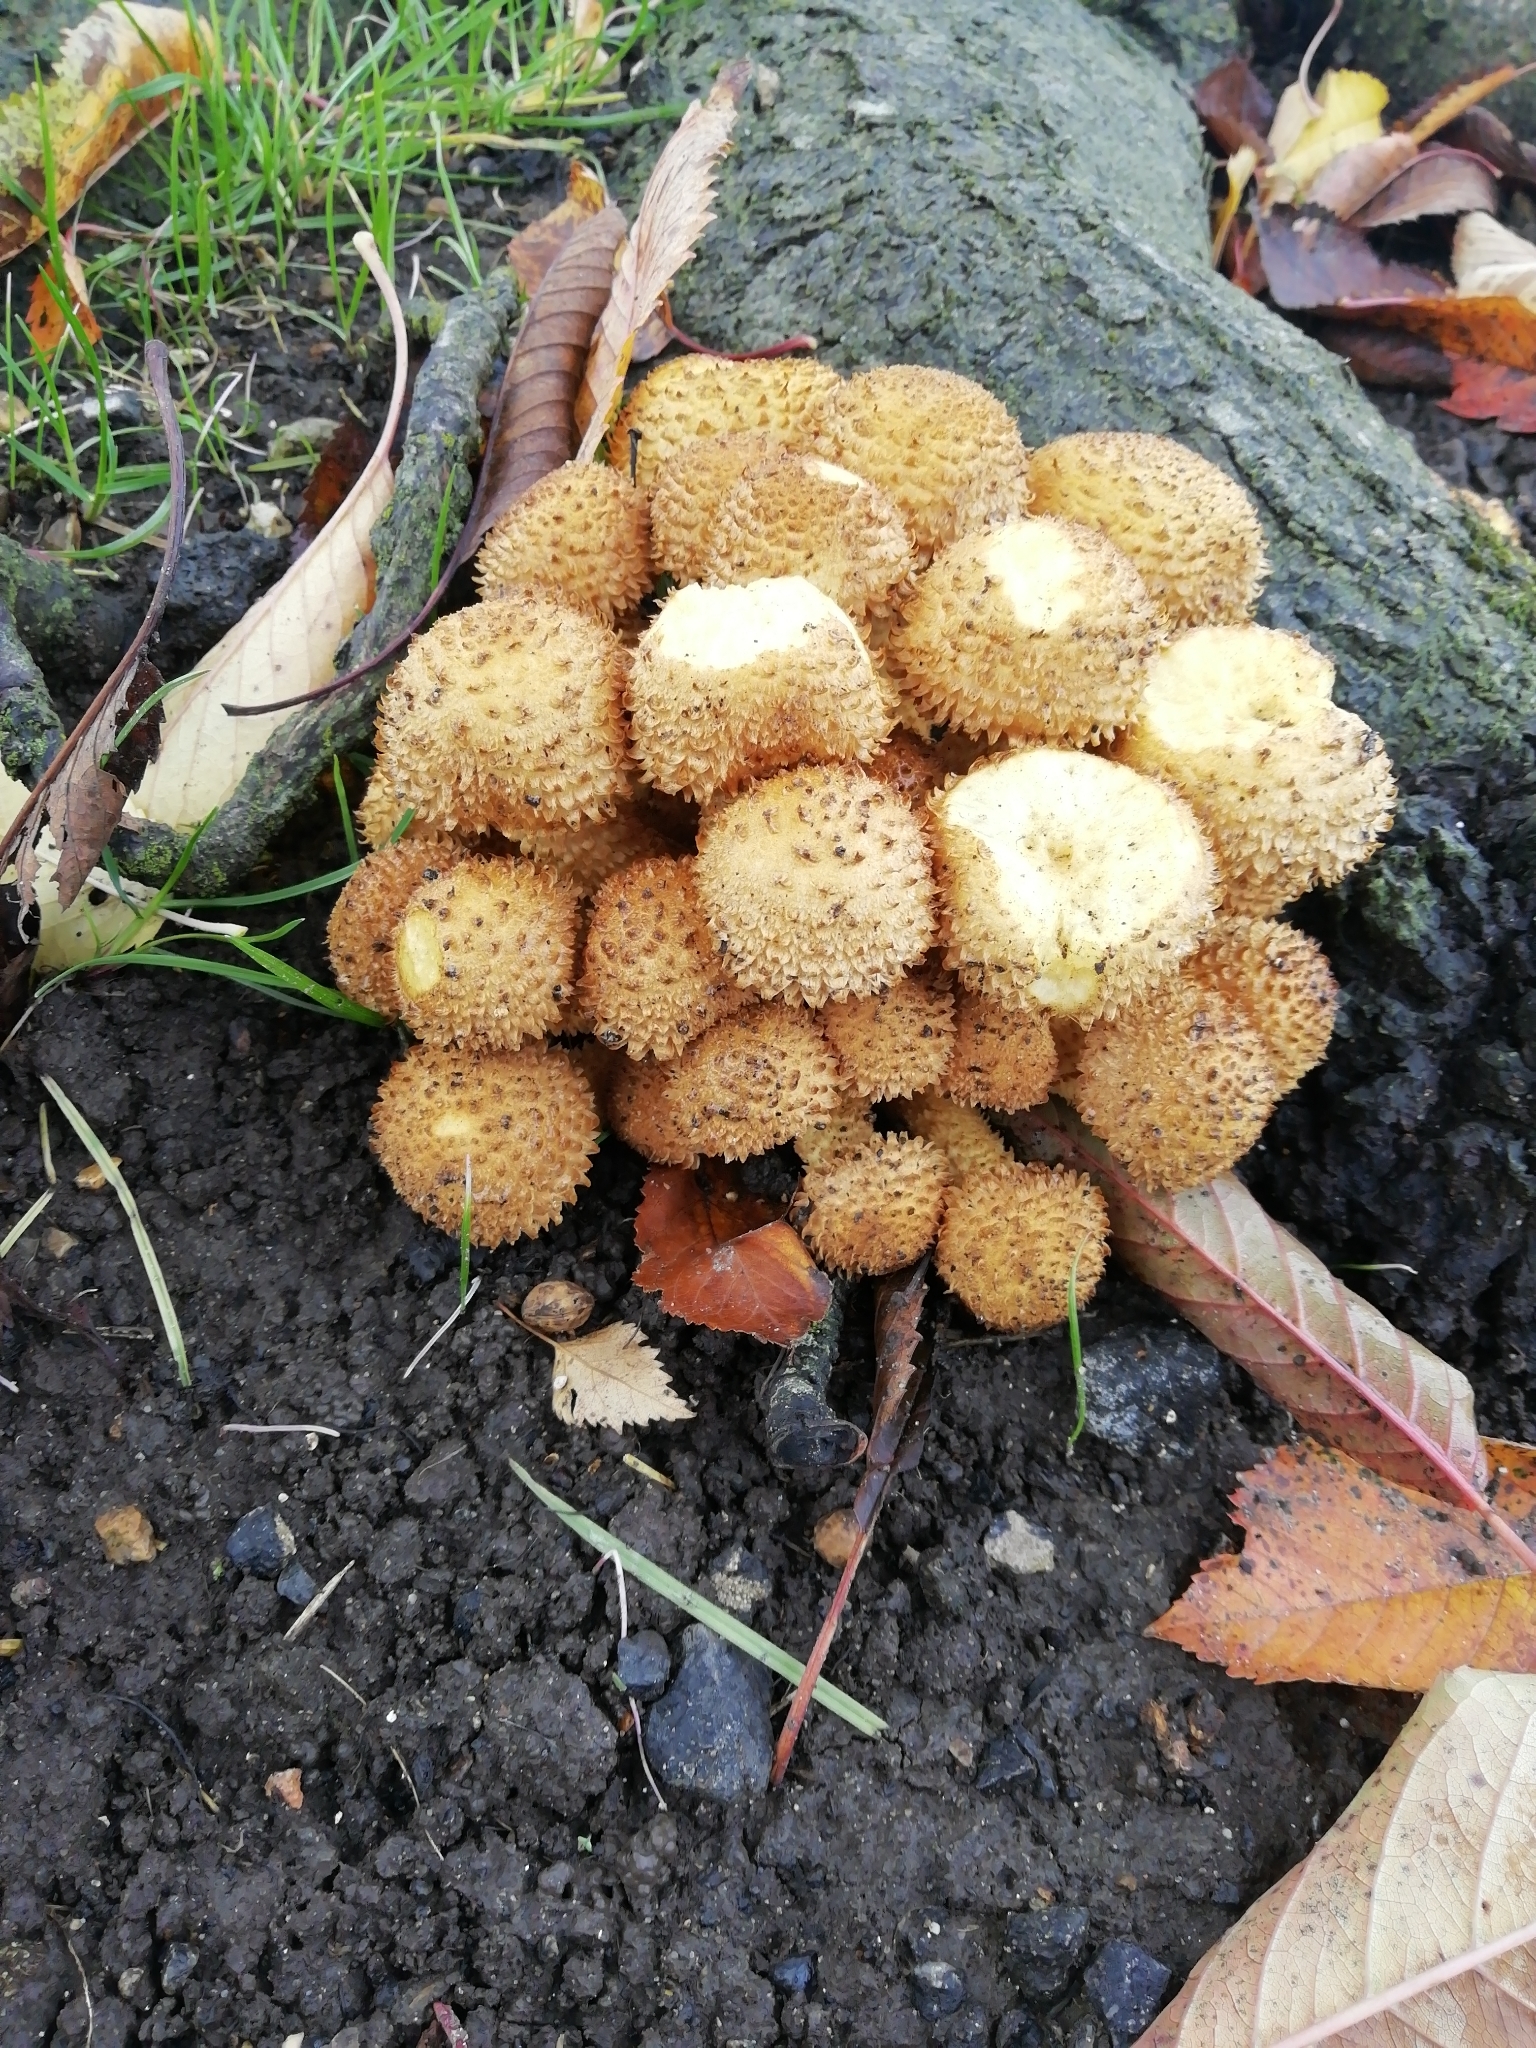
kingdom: Fungi
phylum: Basidiomycota
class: Agaricomycetes
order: Agaricales
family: Strophariaceae
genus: Pholiota
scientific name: Pholiota squarrosa
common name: Shaggy pholiota
